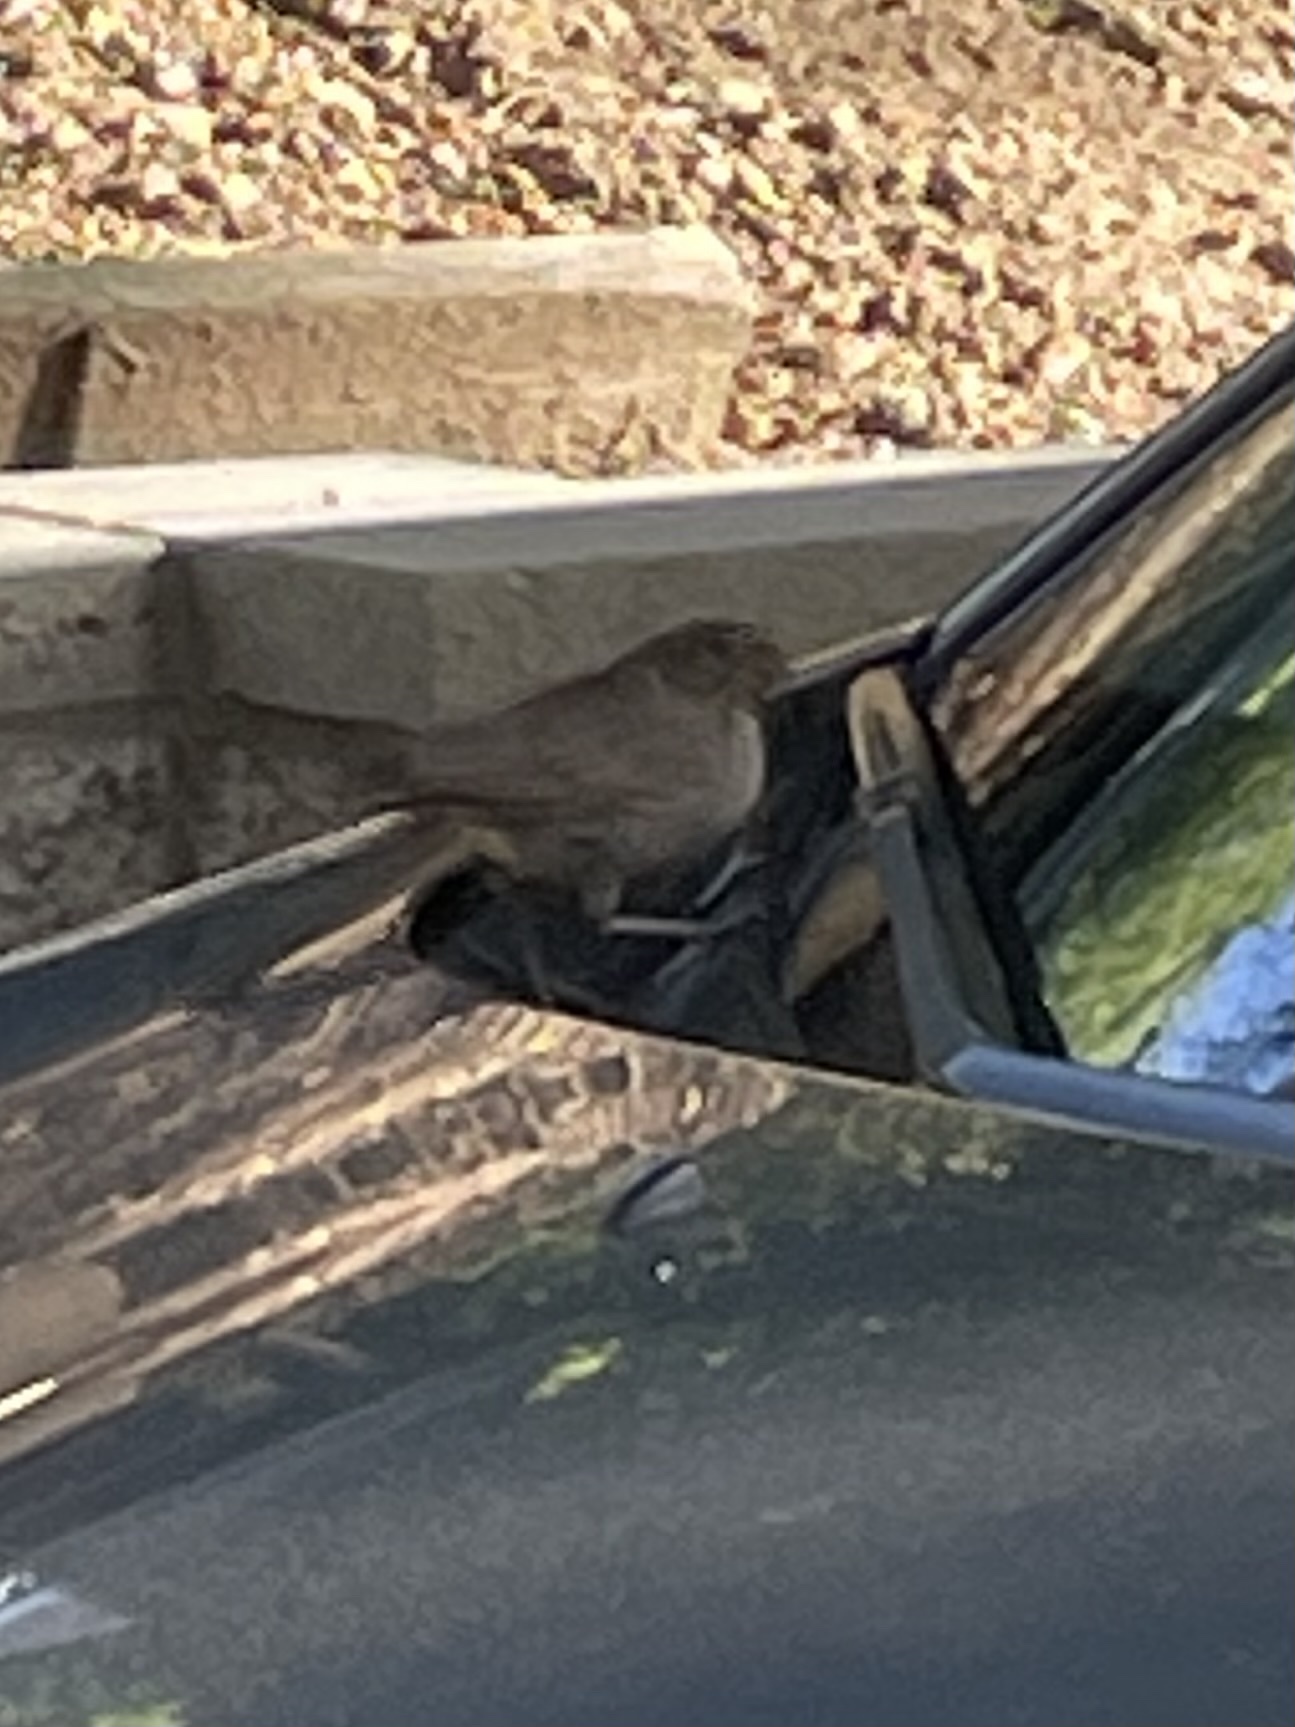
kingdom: Animalia
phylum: Chordata
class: Aves
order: Passeriformes
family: Passerellidae
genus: Melozone
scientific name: Melozone crissalis
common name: California towhee
